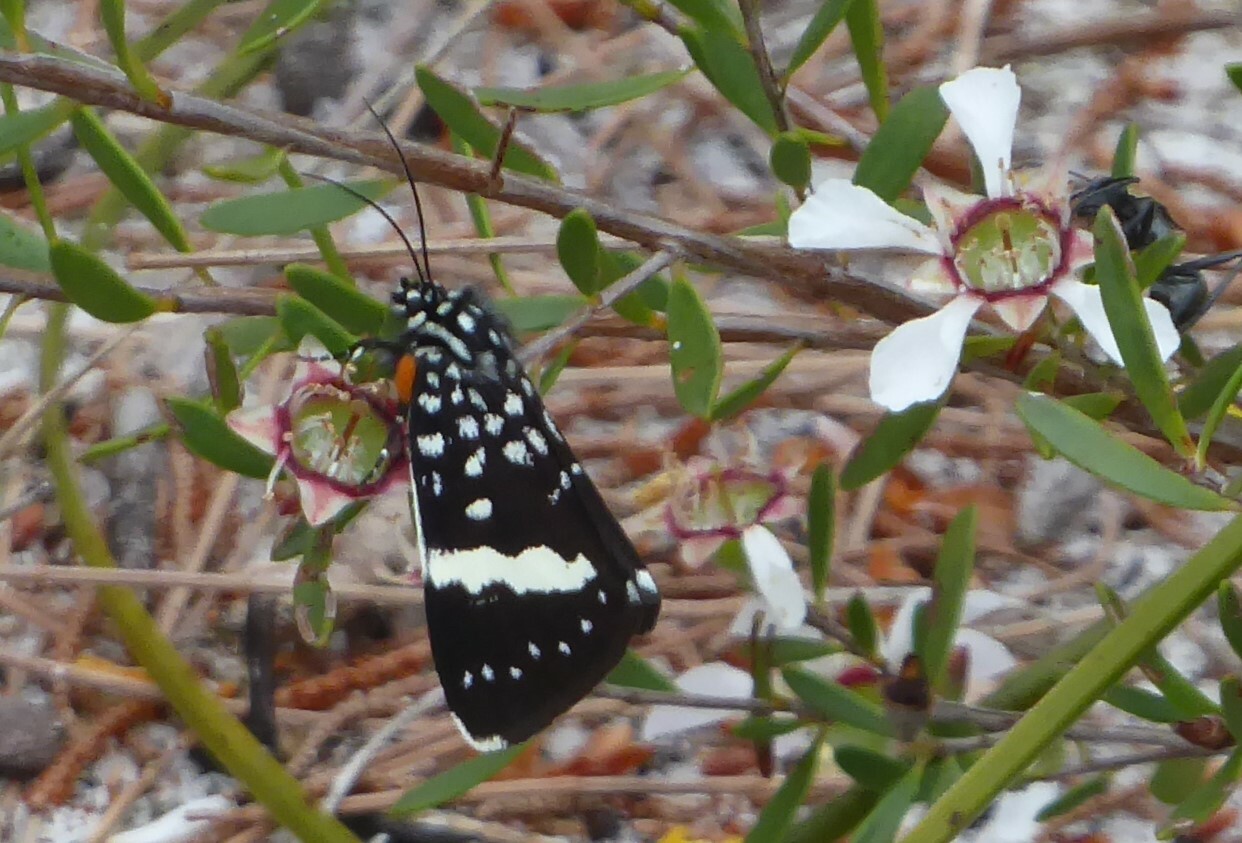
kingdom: Animalia
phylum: Arthropoda
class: Insecta
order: Lepidoptera
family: Noctuidae
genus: Idalima
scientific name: Idalima affinis
